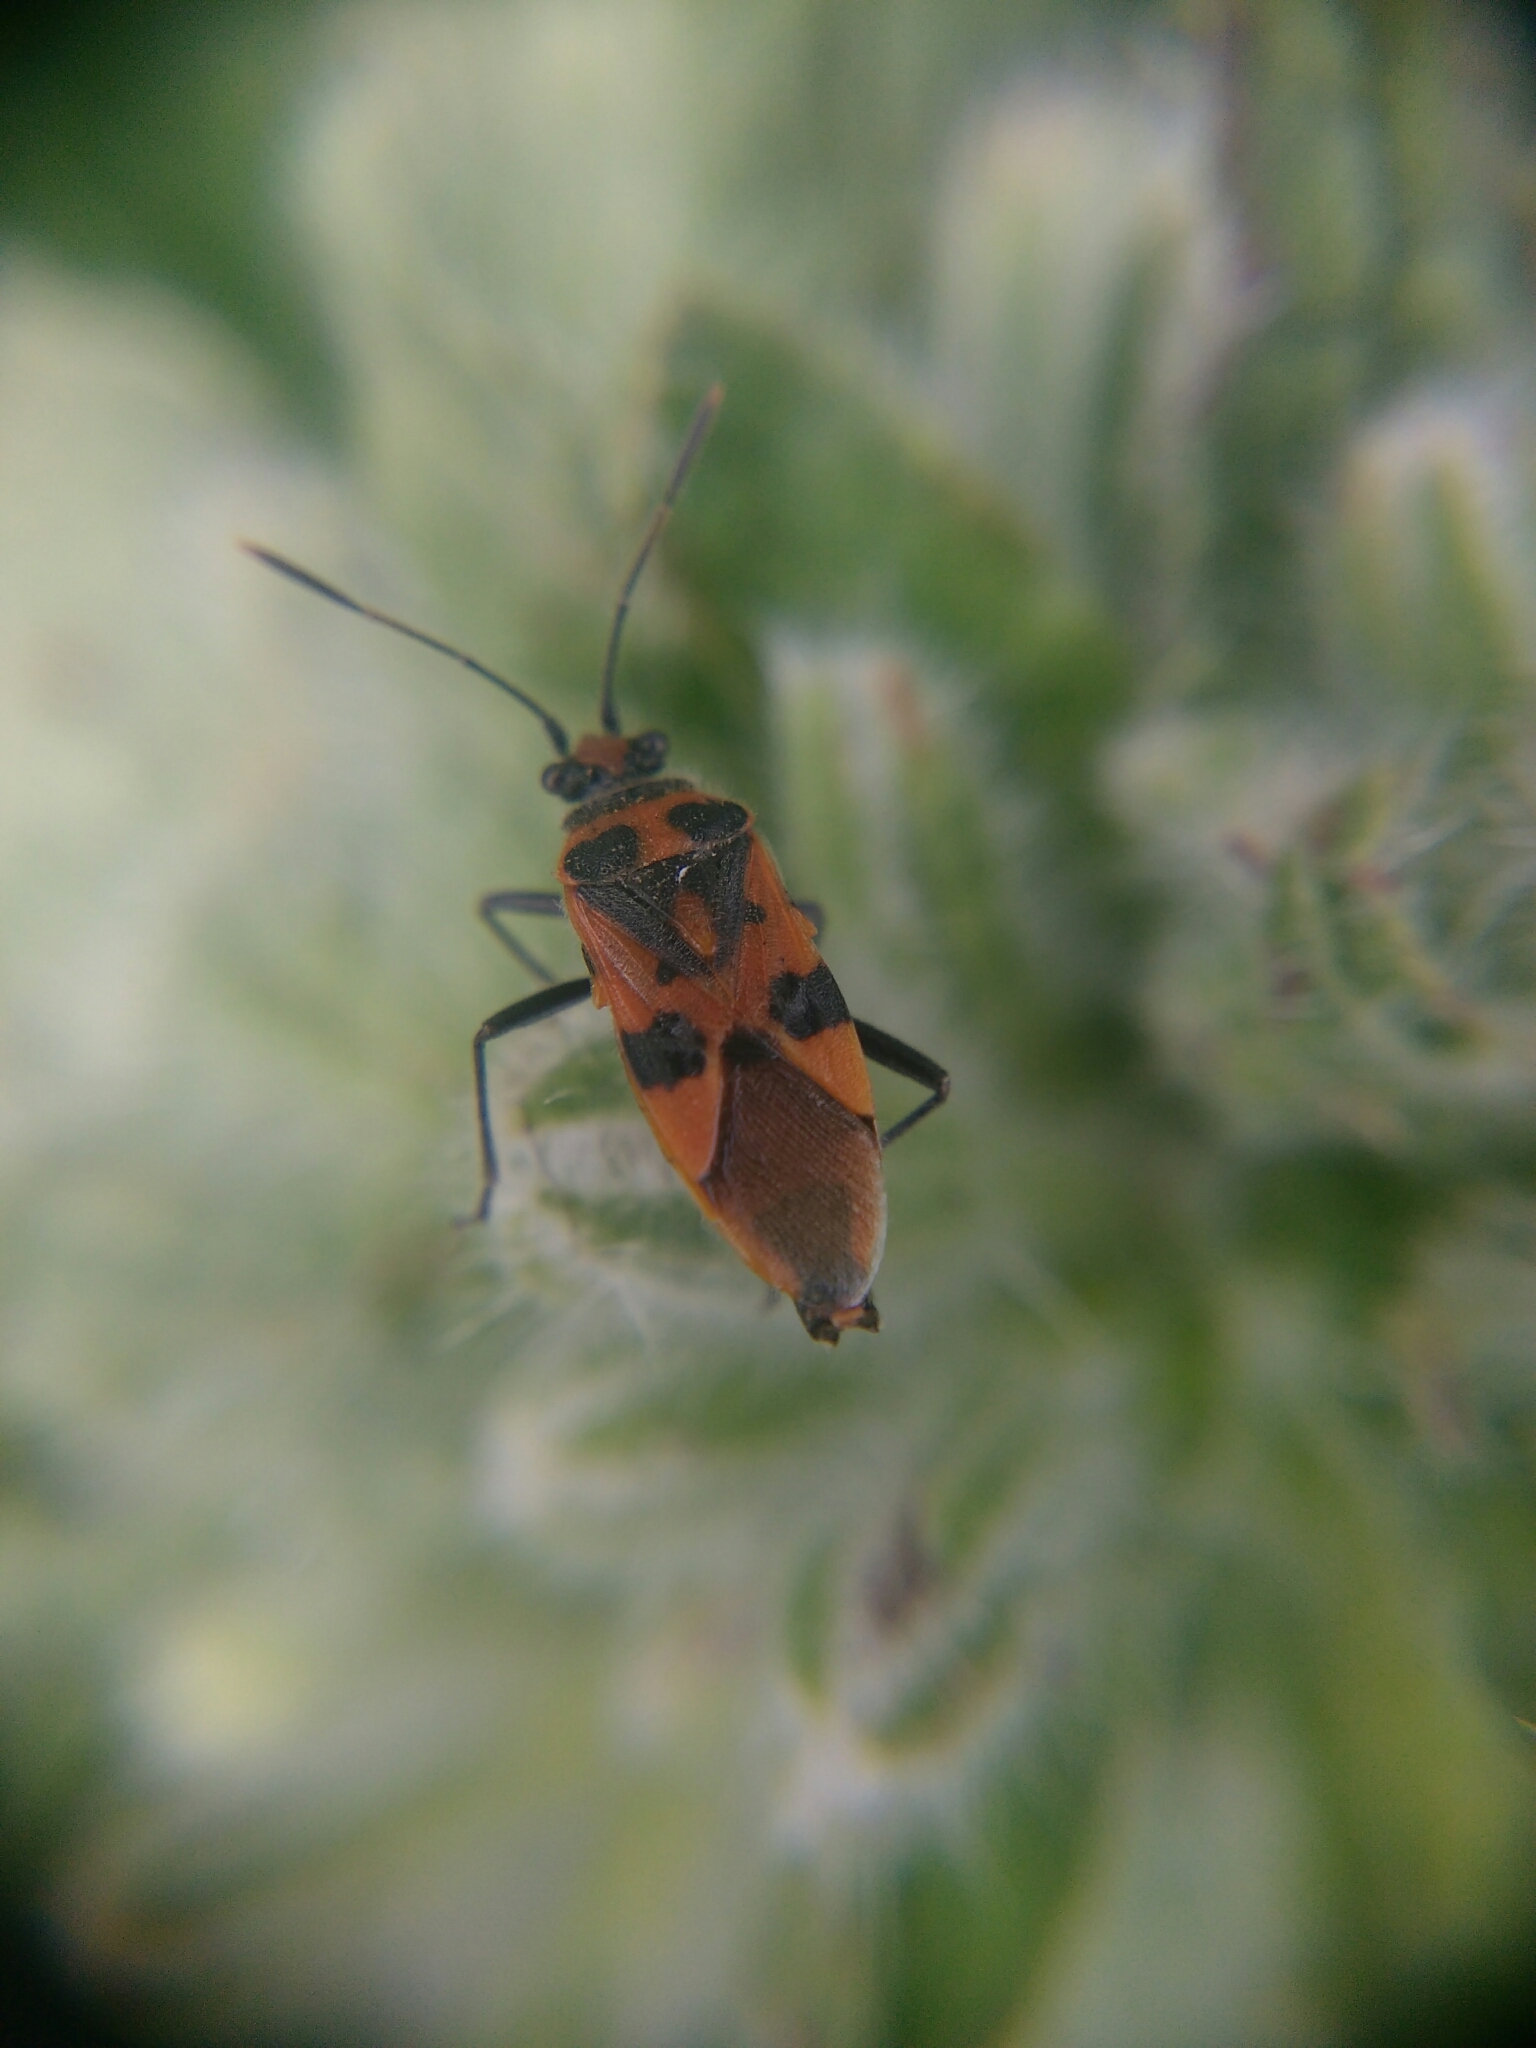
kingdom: Animalia
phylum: Arthropoda
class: Insecta
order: Hemiptera
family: Rhopalidae
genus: Corizus
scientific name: Corizus hyoscyami
